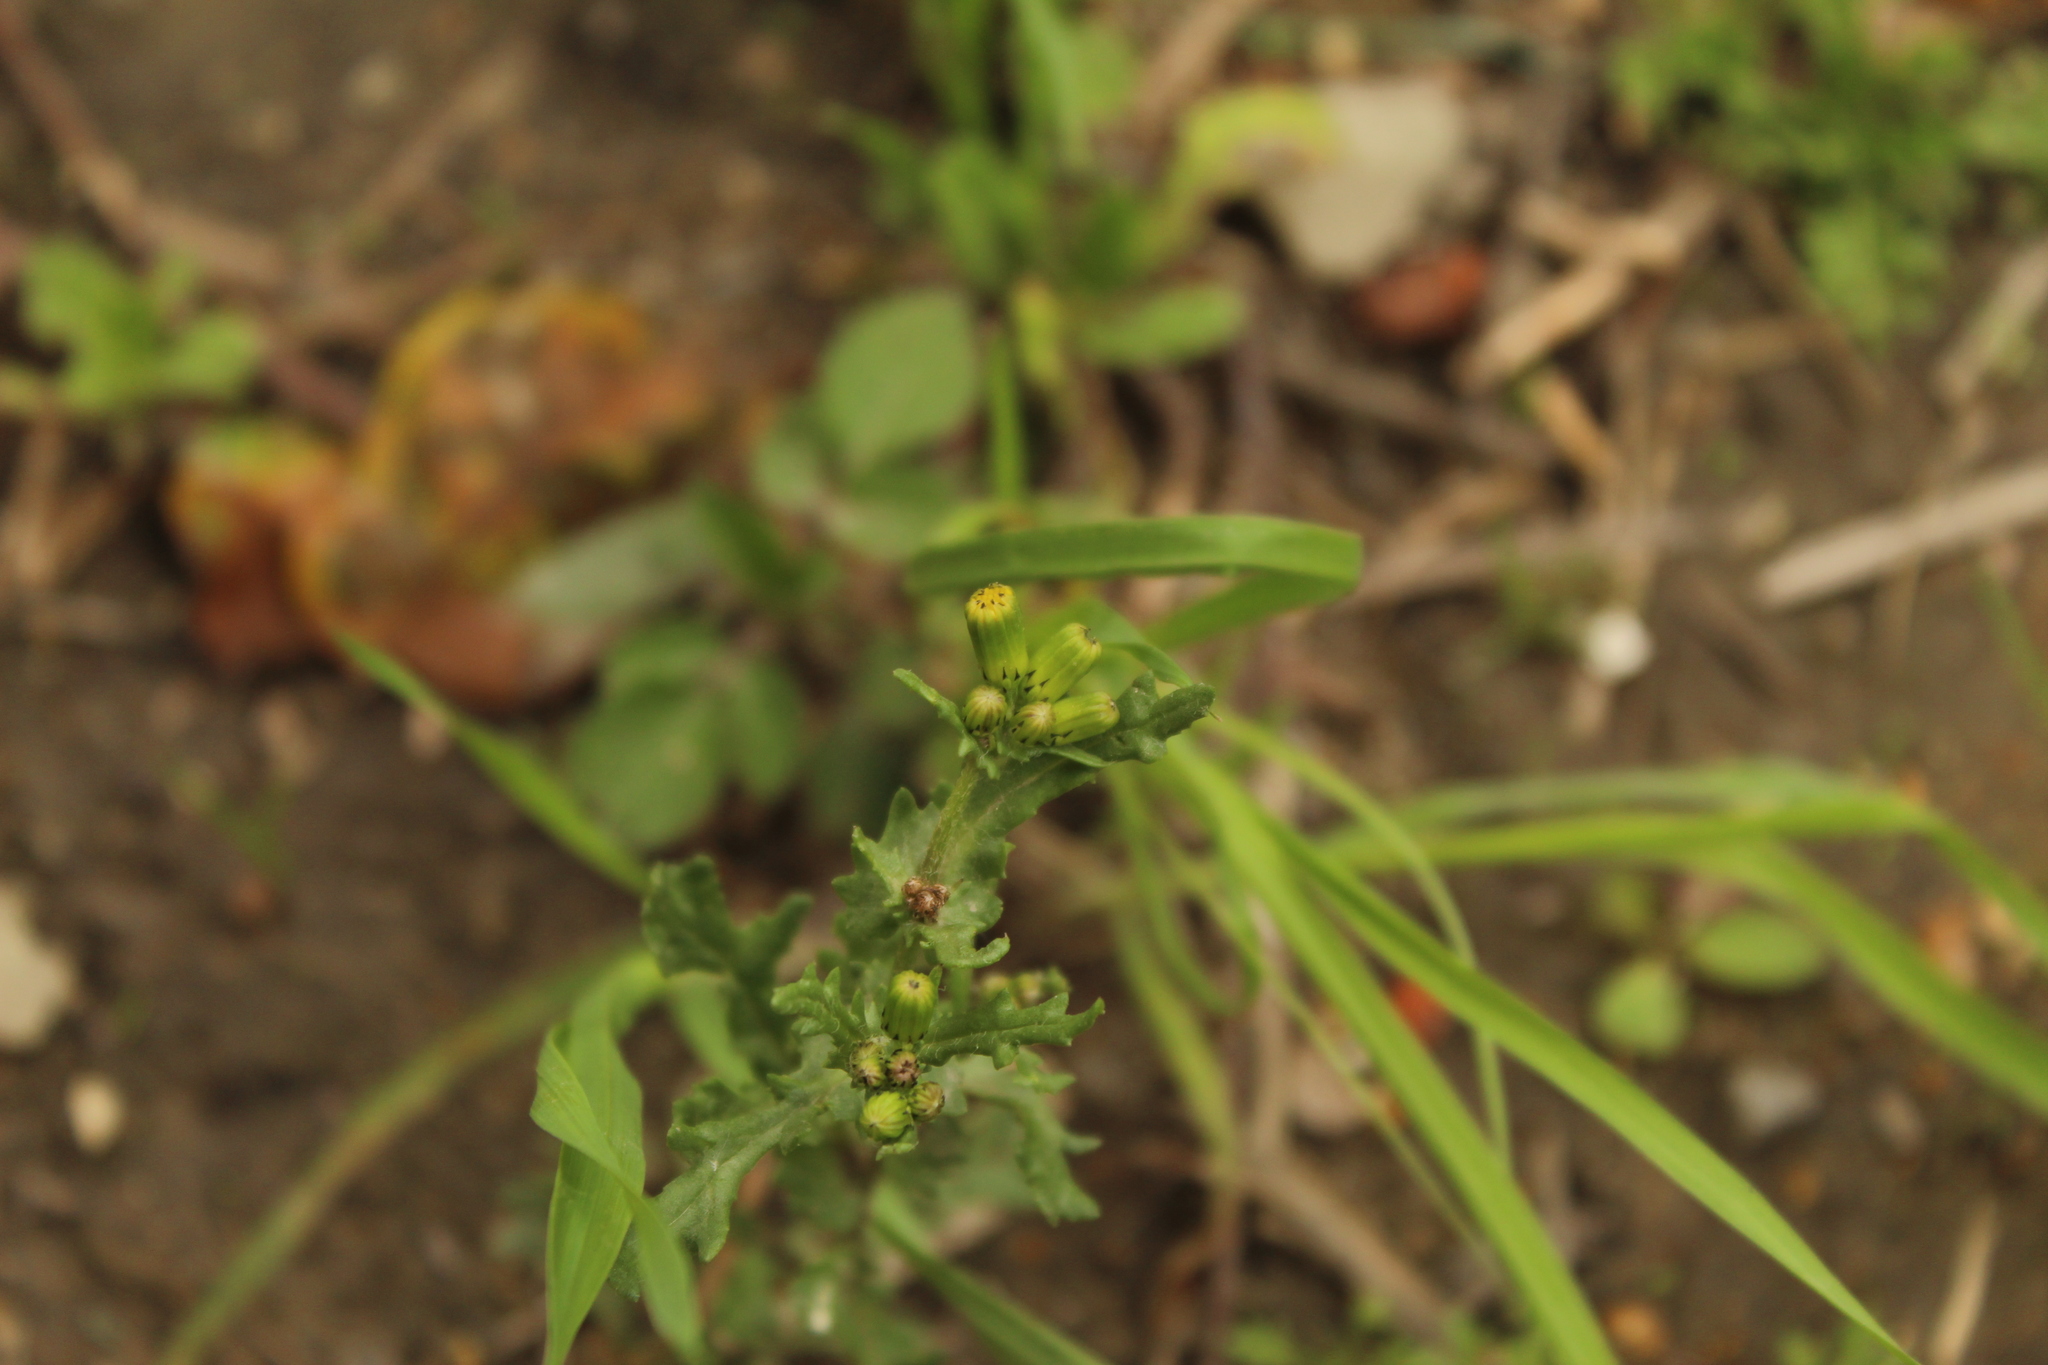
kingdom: Plantae
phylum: Tracheophyta
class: Magnoliopsida
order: Asterales
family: Asteraceae
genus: Senecio
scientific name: Senecio vulgaris
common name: Old-man-in-the-spring
